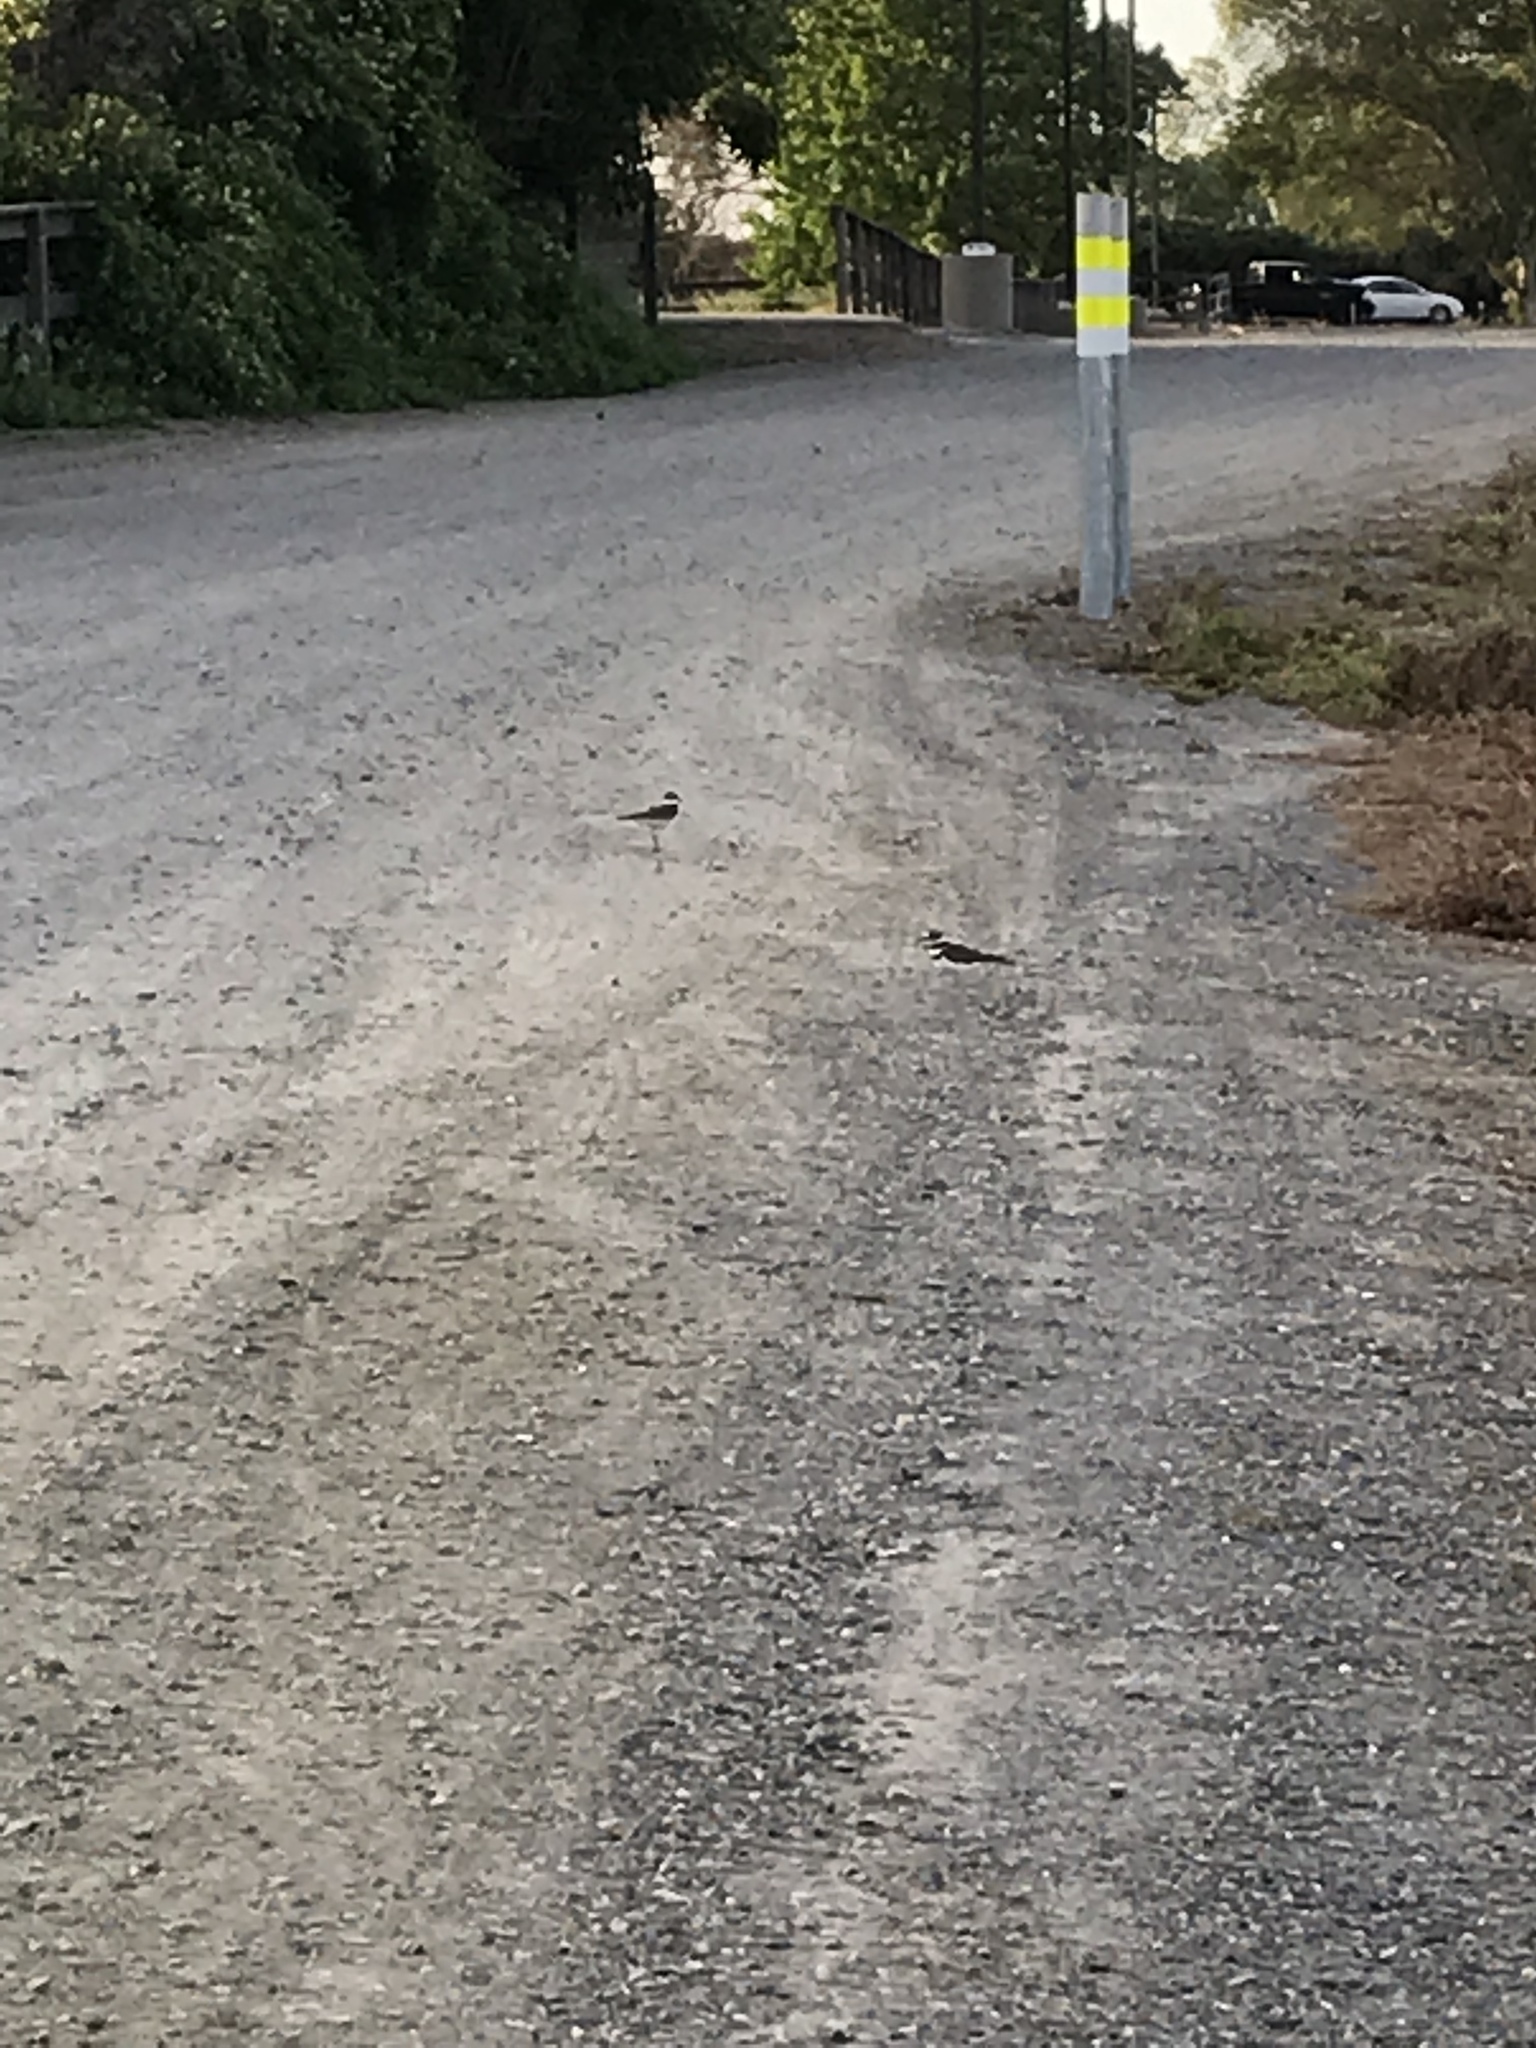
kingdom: Animalia
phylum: Chordata
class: Aves
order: Charadriiformes
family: Charadriidae
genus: Charadrius
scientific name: Charadrius vociferus
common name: Killdeer
